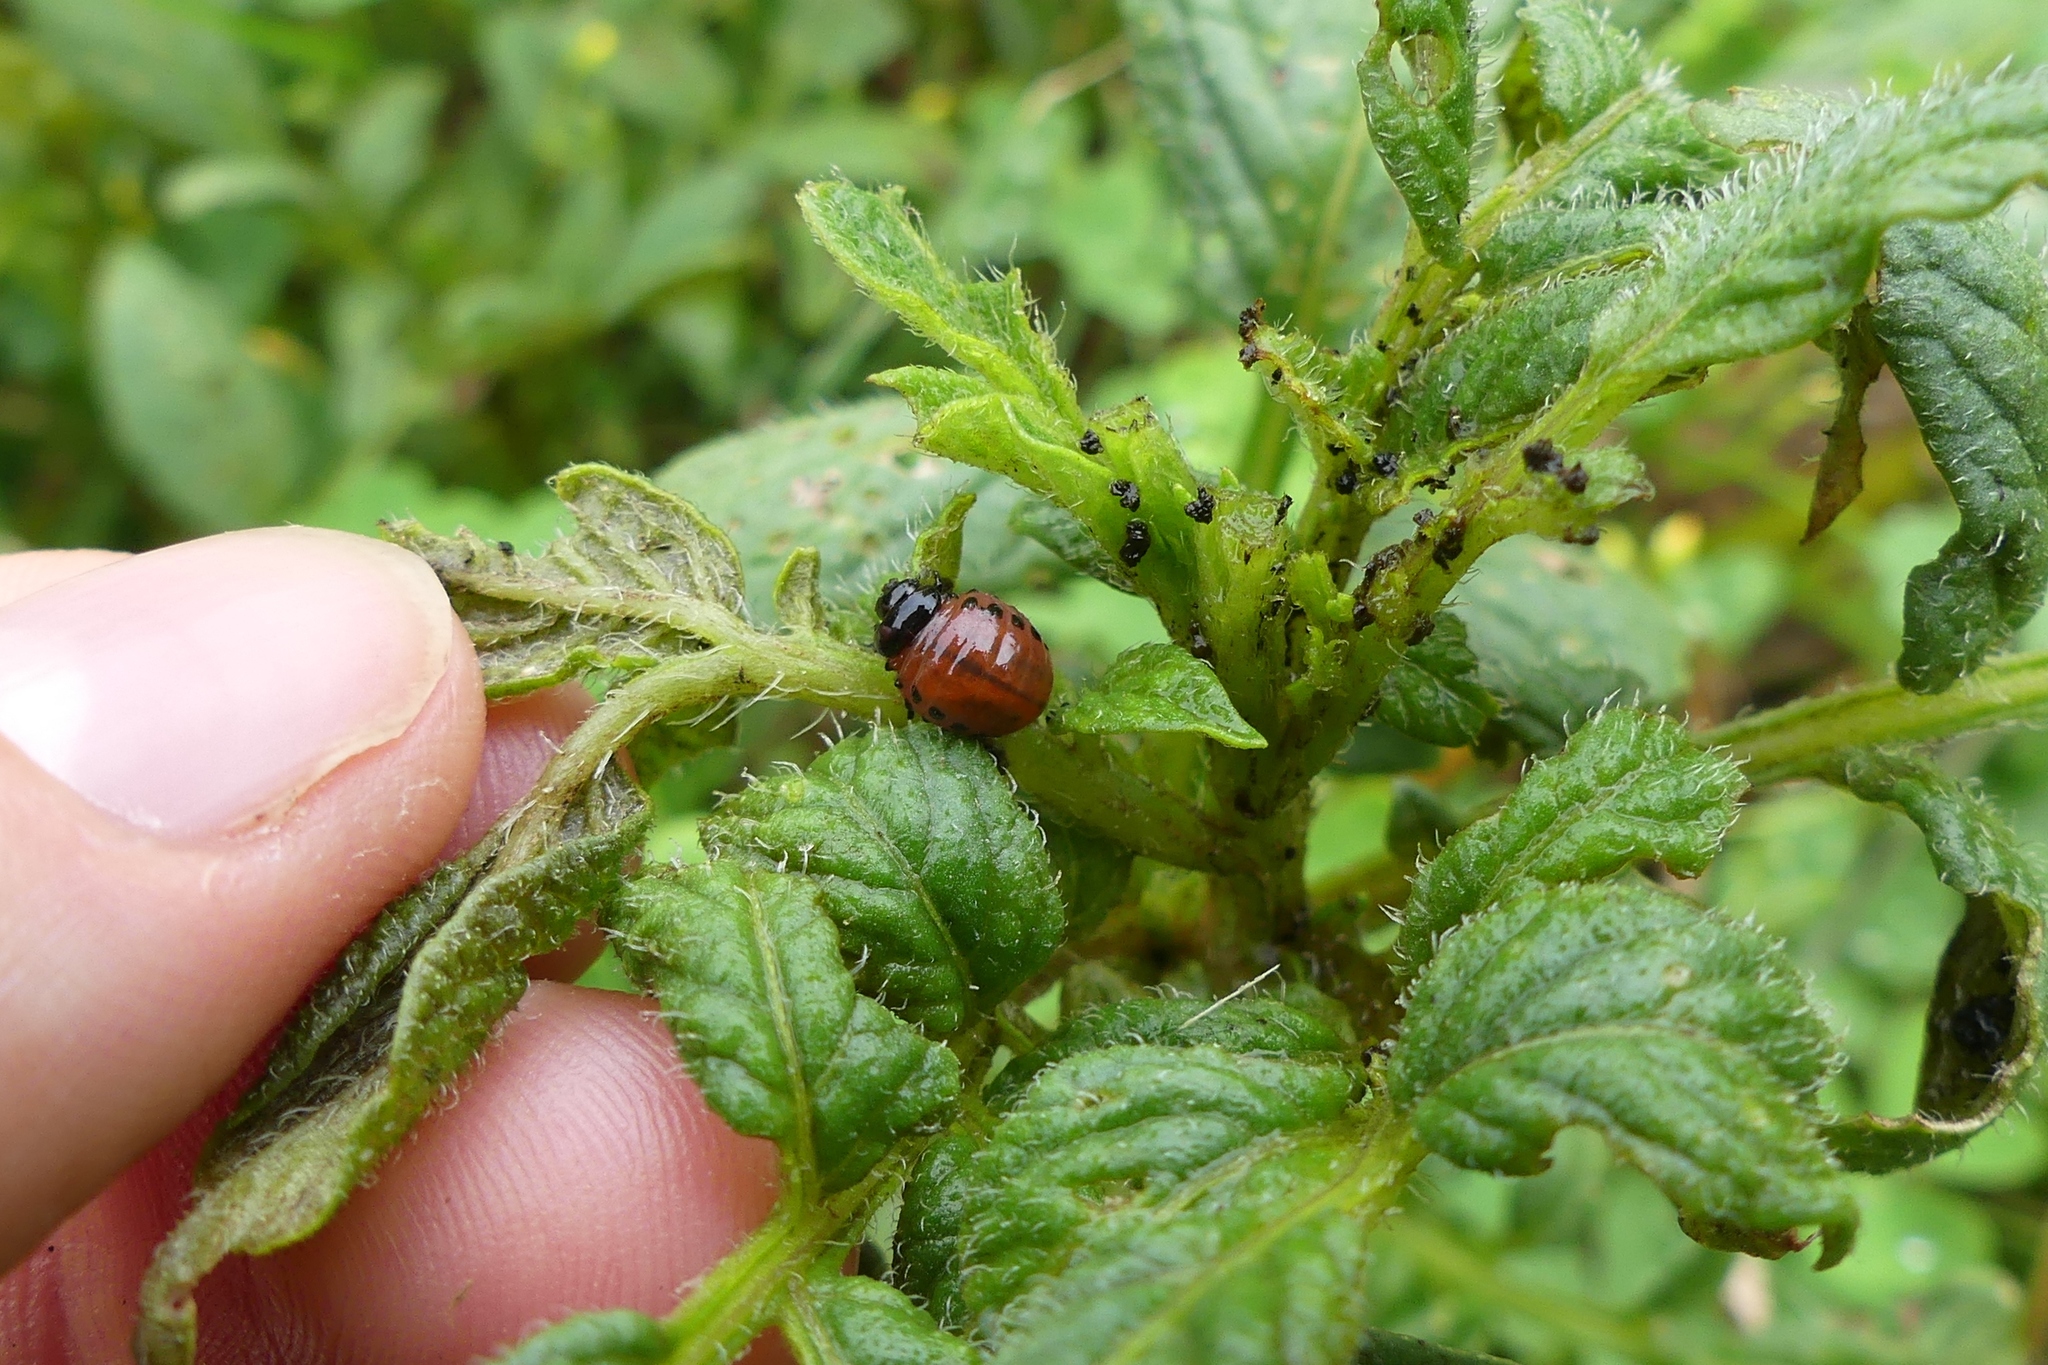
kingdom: Animalia
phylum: Arthropoda
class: Insecta
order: Coleoptera
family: Chrysomelidae
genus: Leptinotarsa
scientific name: Leptinotarsa decemlineata
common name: Colorado potato beetle
